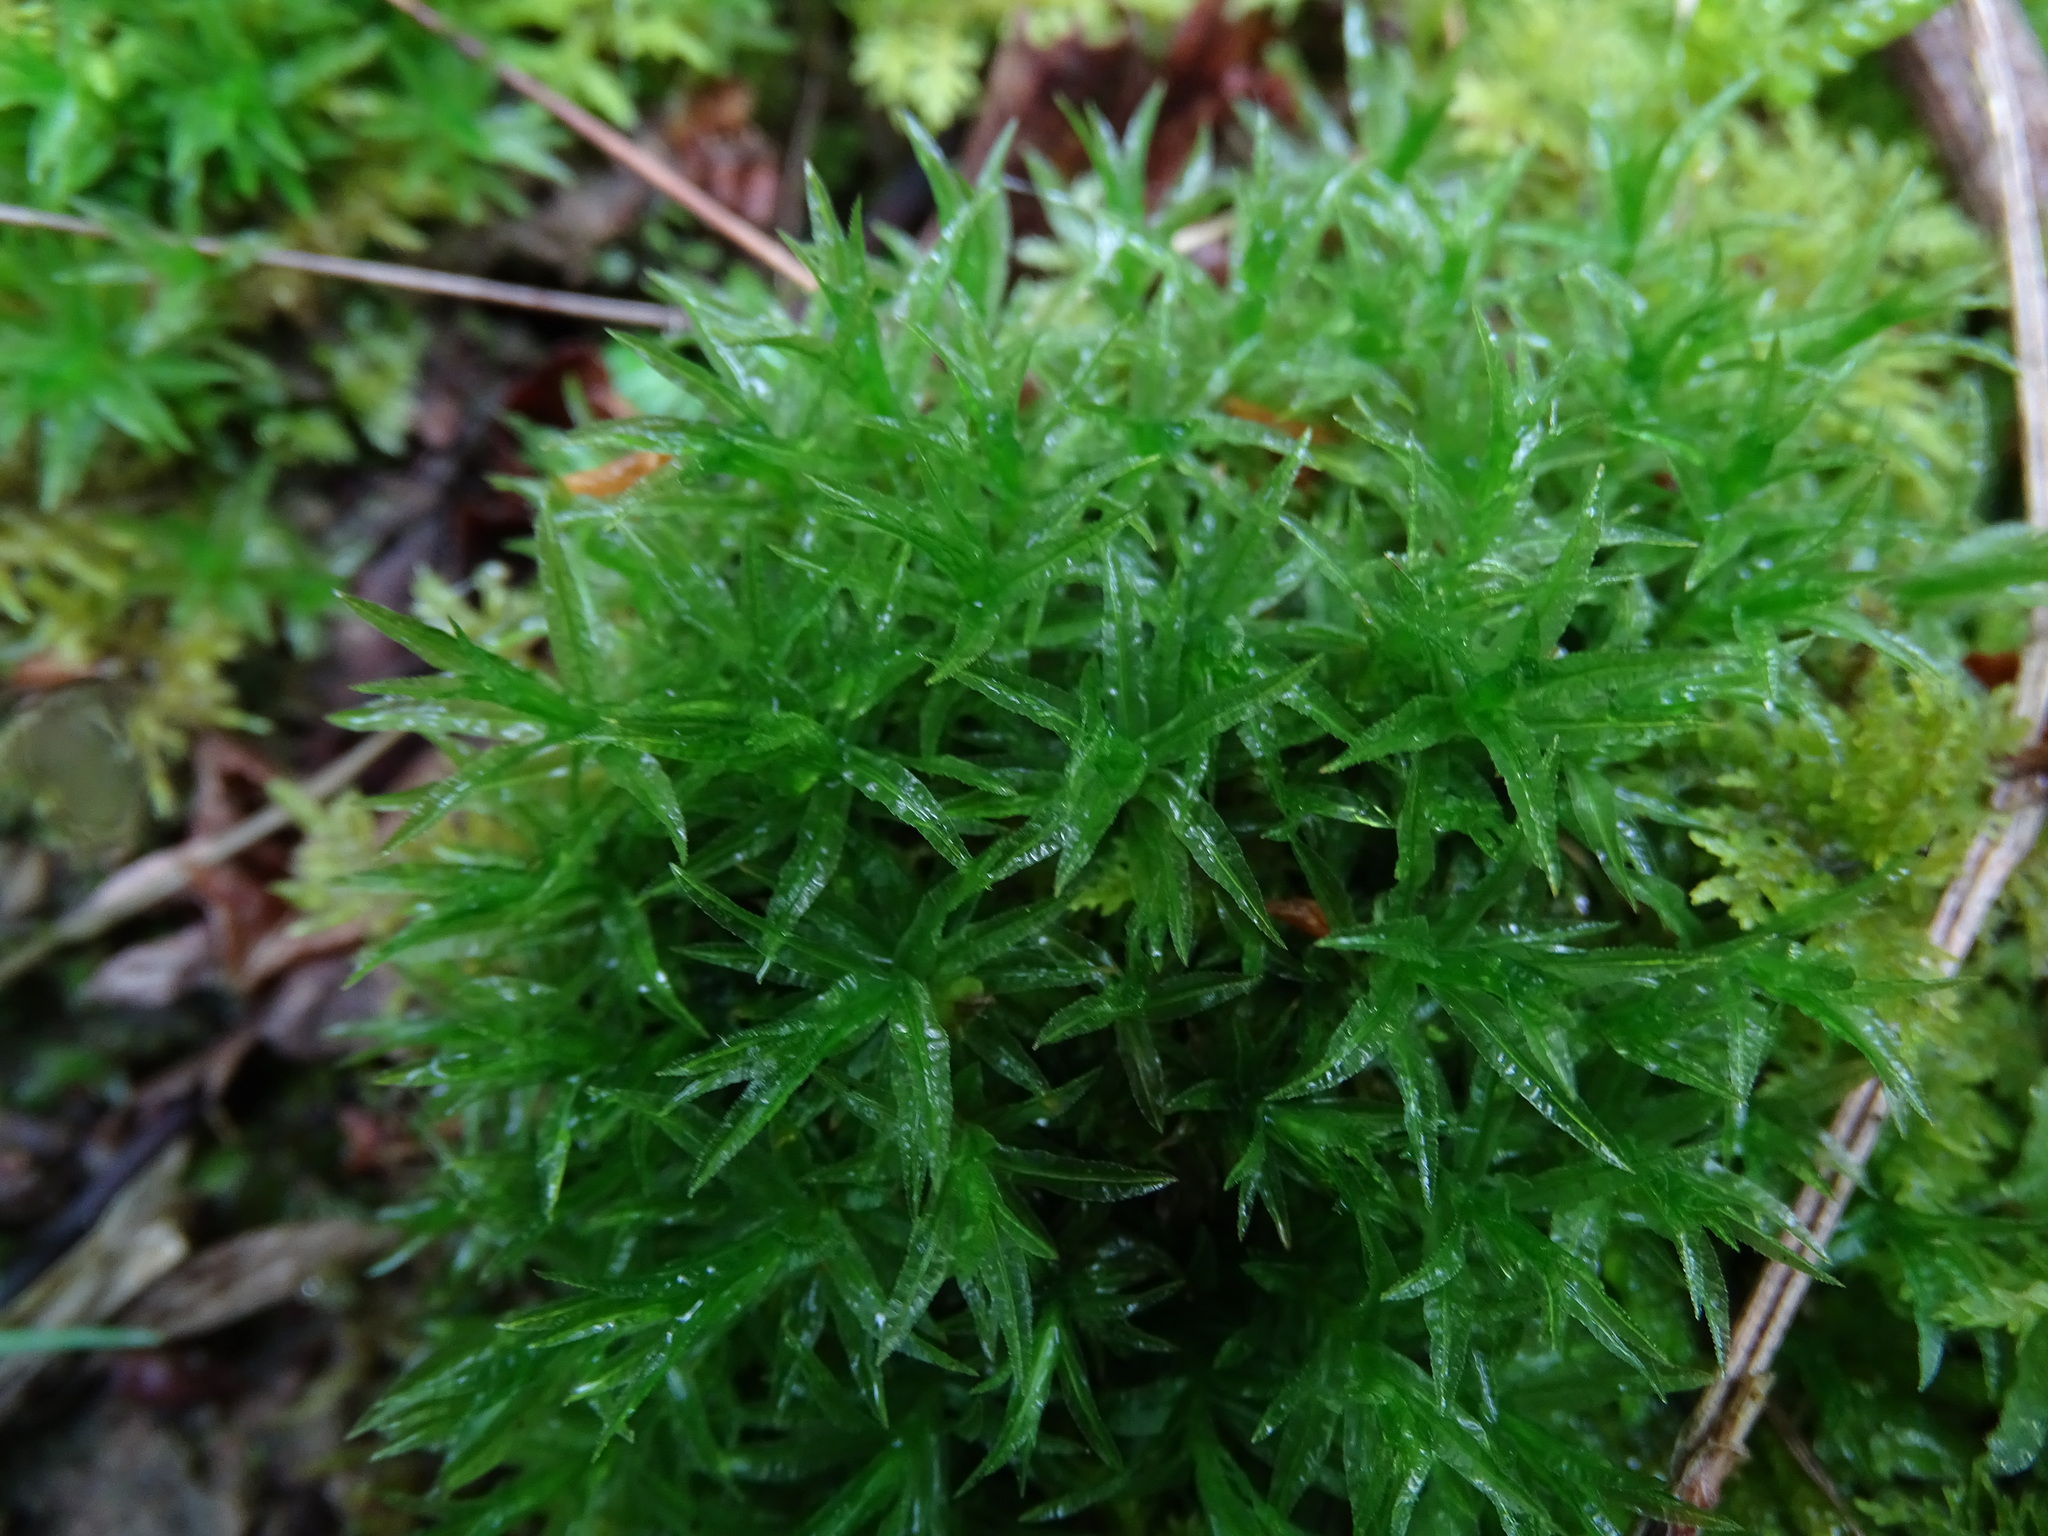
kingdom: Plantae
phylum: Bryophyta
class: Polytrichopsida
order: Polytrichales
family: Polytrichaceae
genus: Atrichum
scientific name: Atrichum undulatum
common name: Common smoothcap
